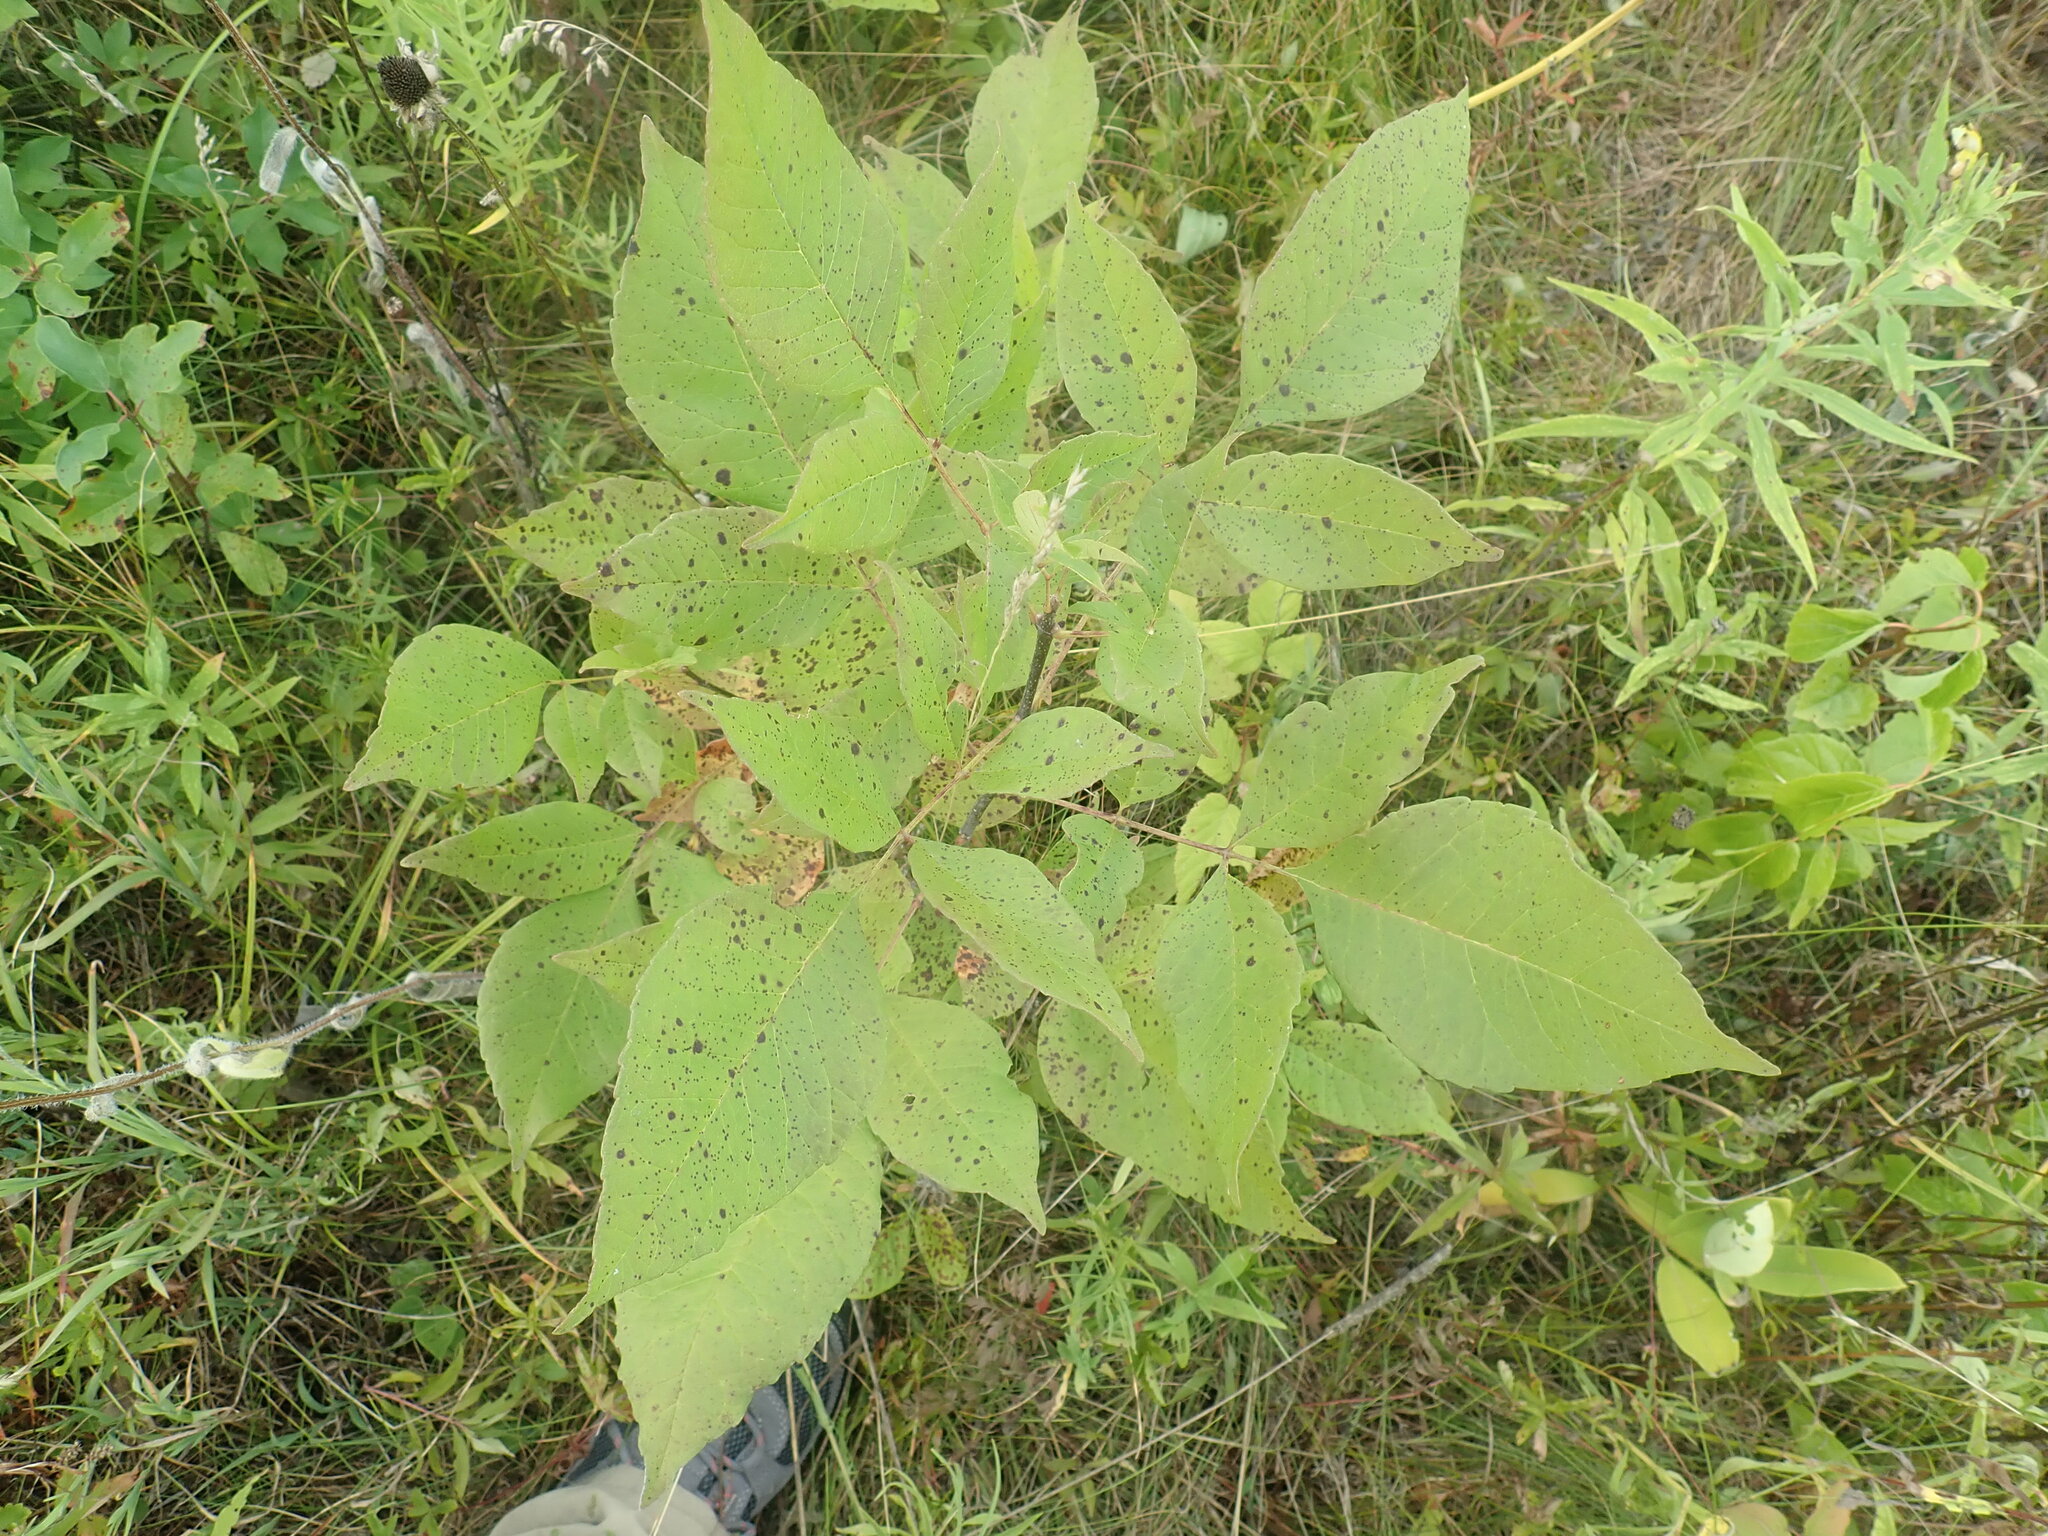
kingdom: Plantae
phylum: Tracheophyta
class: Magnoliopsida
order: Lamiales
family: Oleaceae
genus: Fraxinus
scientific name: Fraxinus
